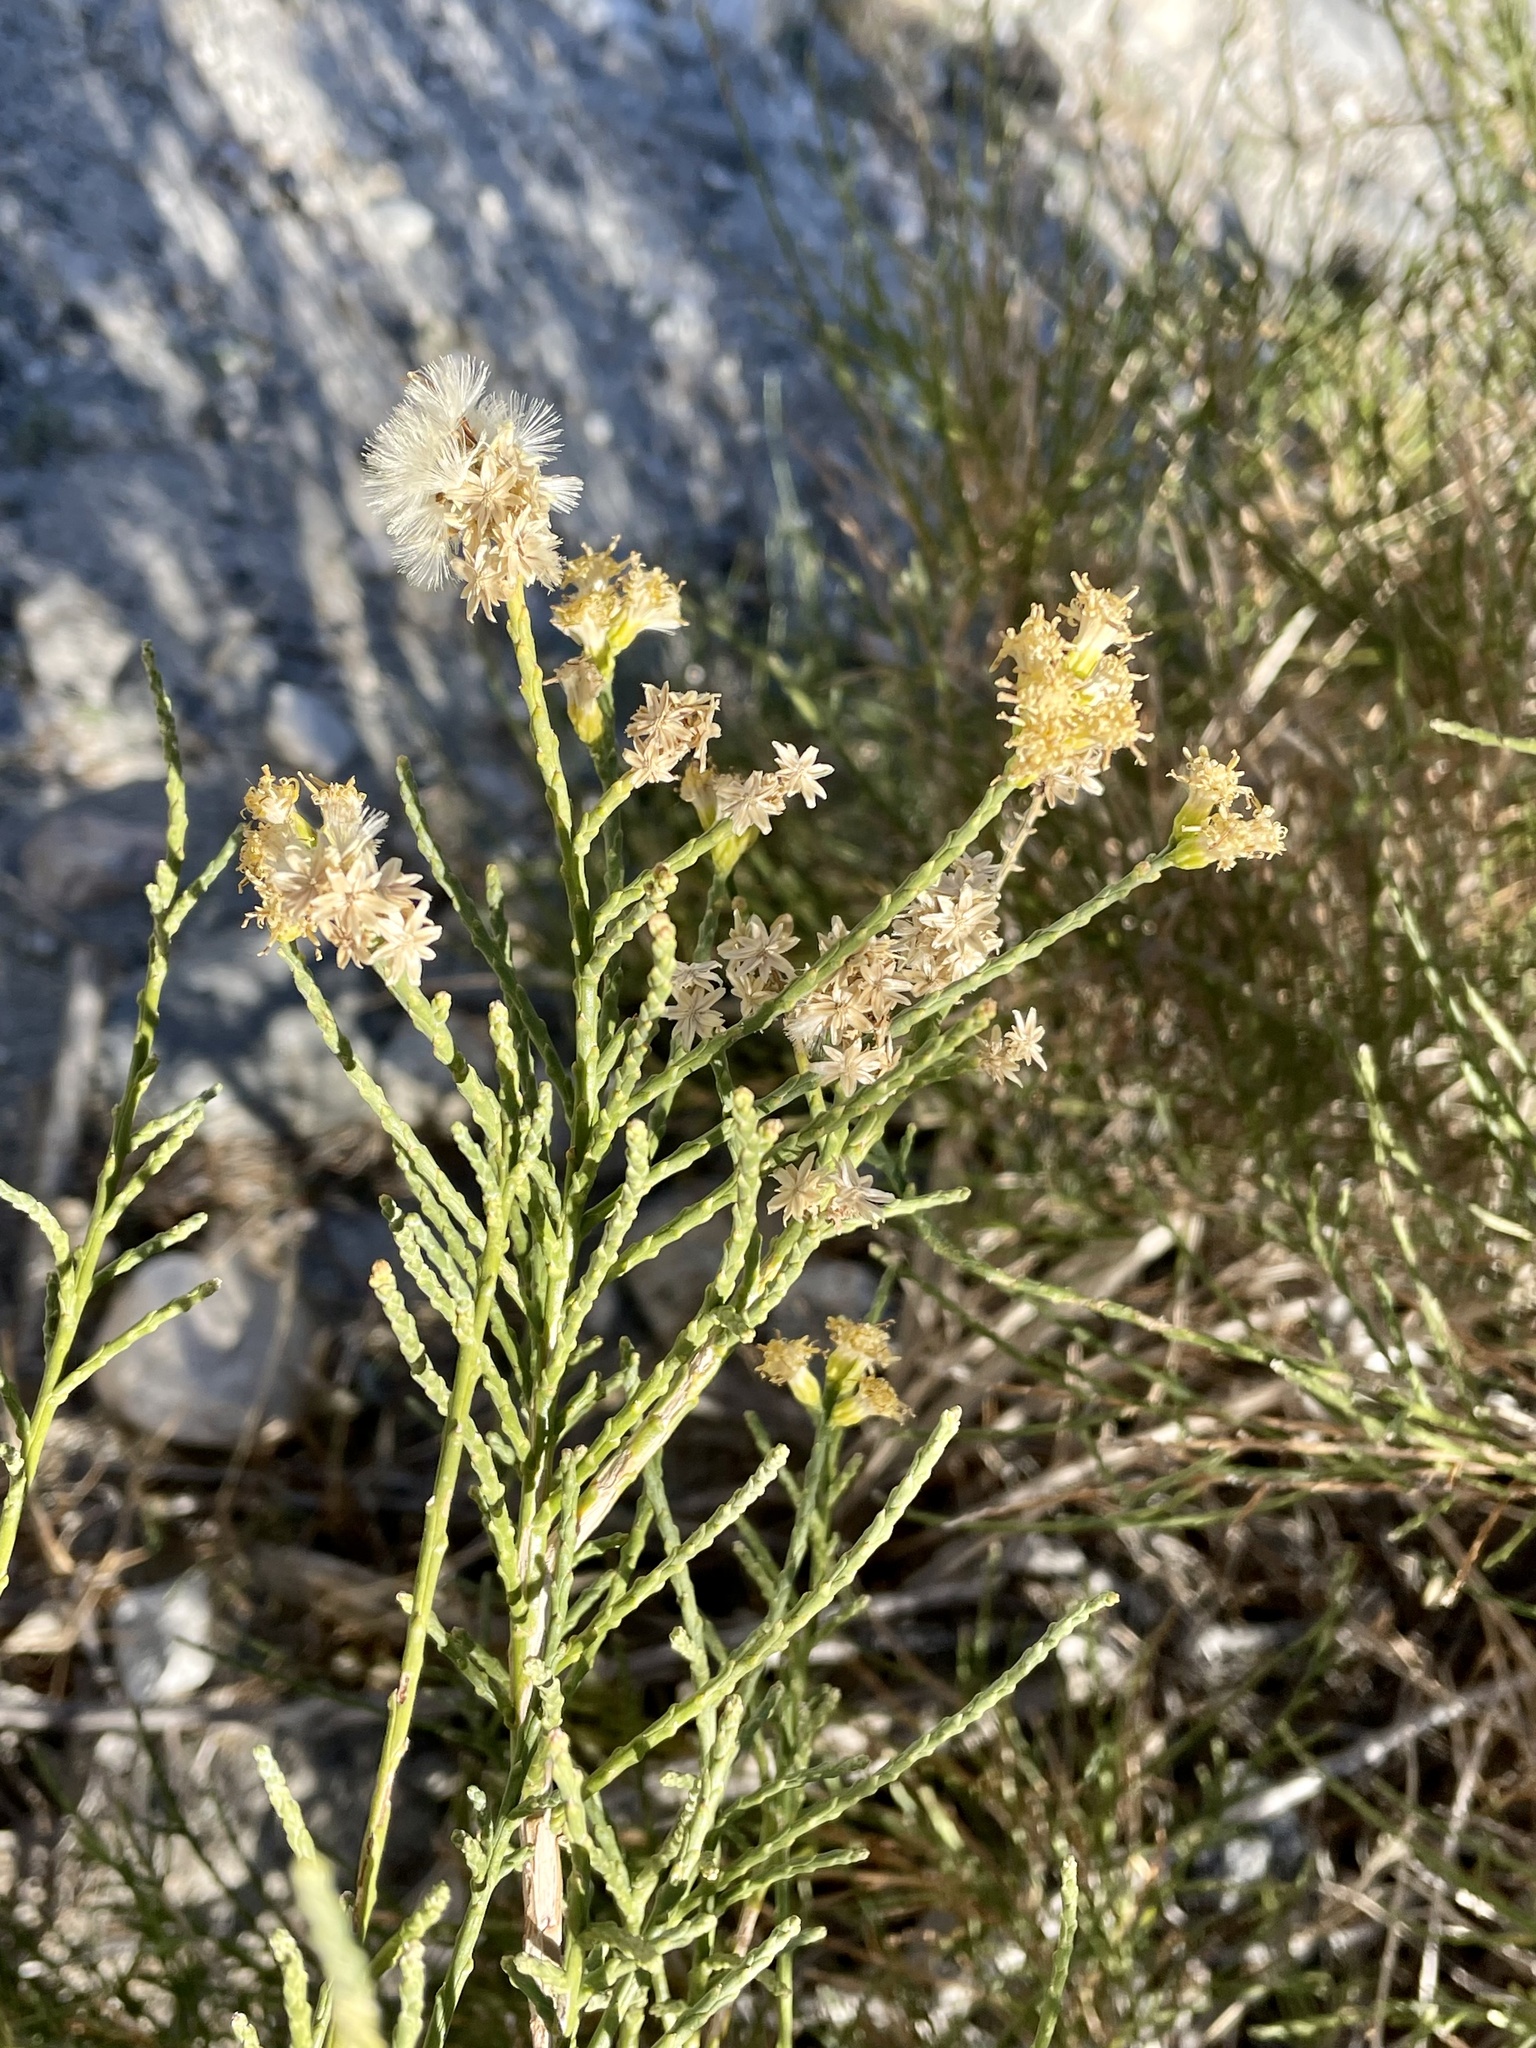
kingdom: Plantae
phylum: Tracheophyta
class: Magnoliopsida
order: Asterales
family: Asteraceae
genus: Lepidospartum
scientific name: Lepidospartum squamatum
